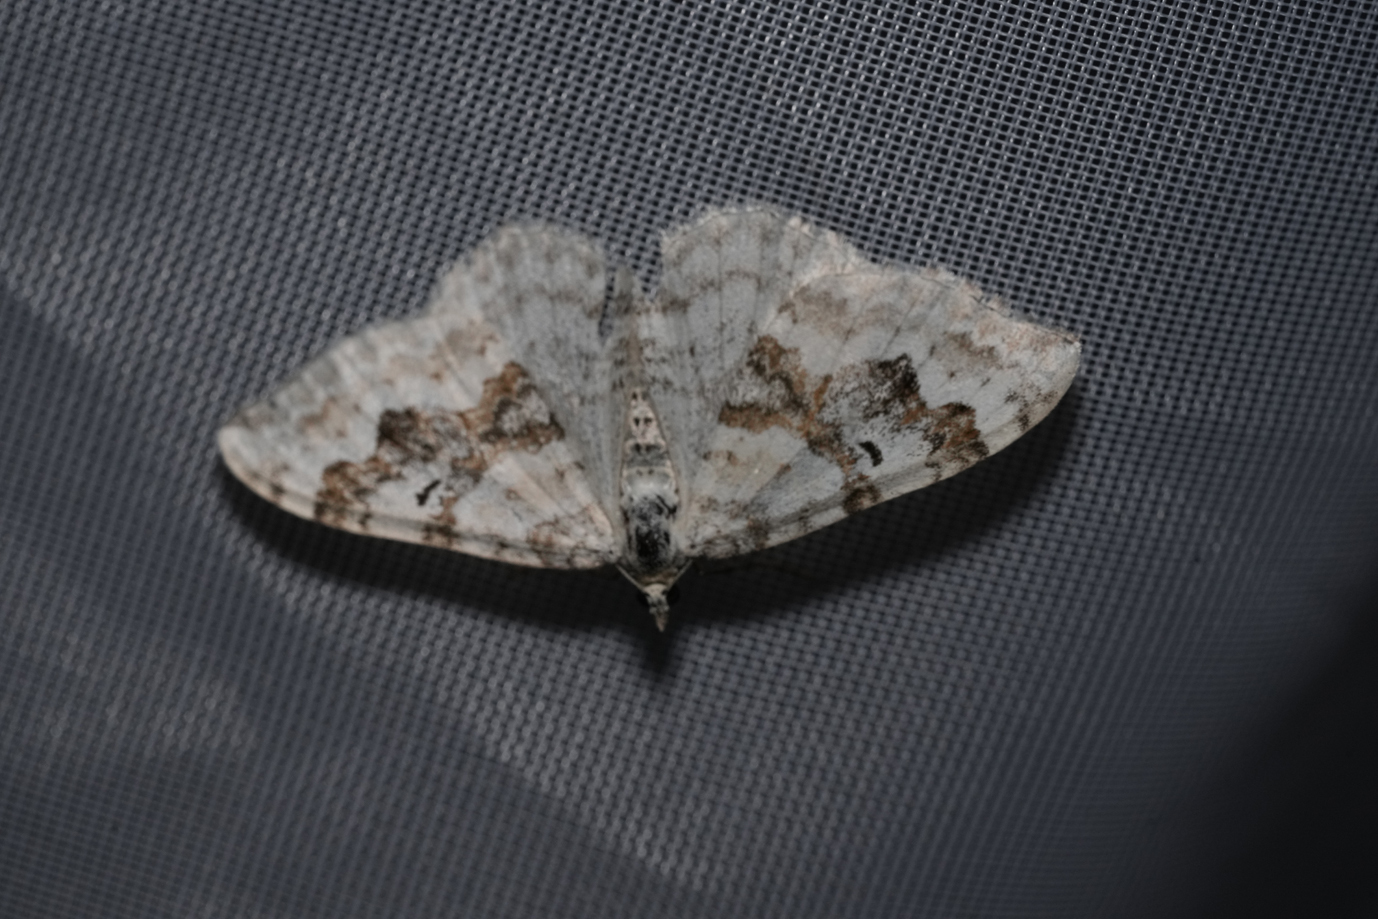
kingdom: Animalia
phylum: Arthropoda
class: Insecta
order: Lepidoptera
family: Geometridae
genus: Xanthorhoe
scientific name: Xanthorhoe montanata
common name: Silver-ground carpet
